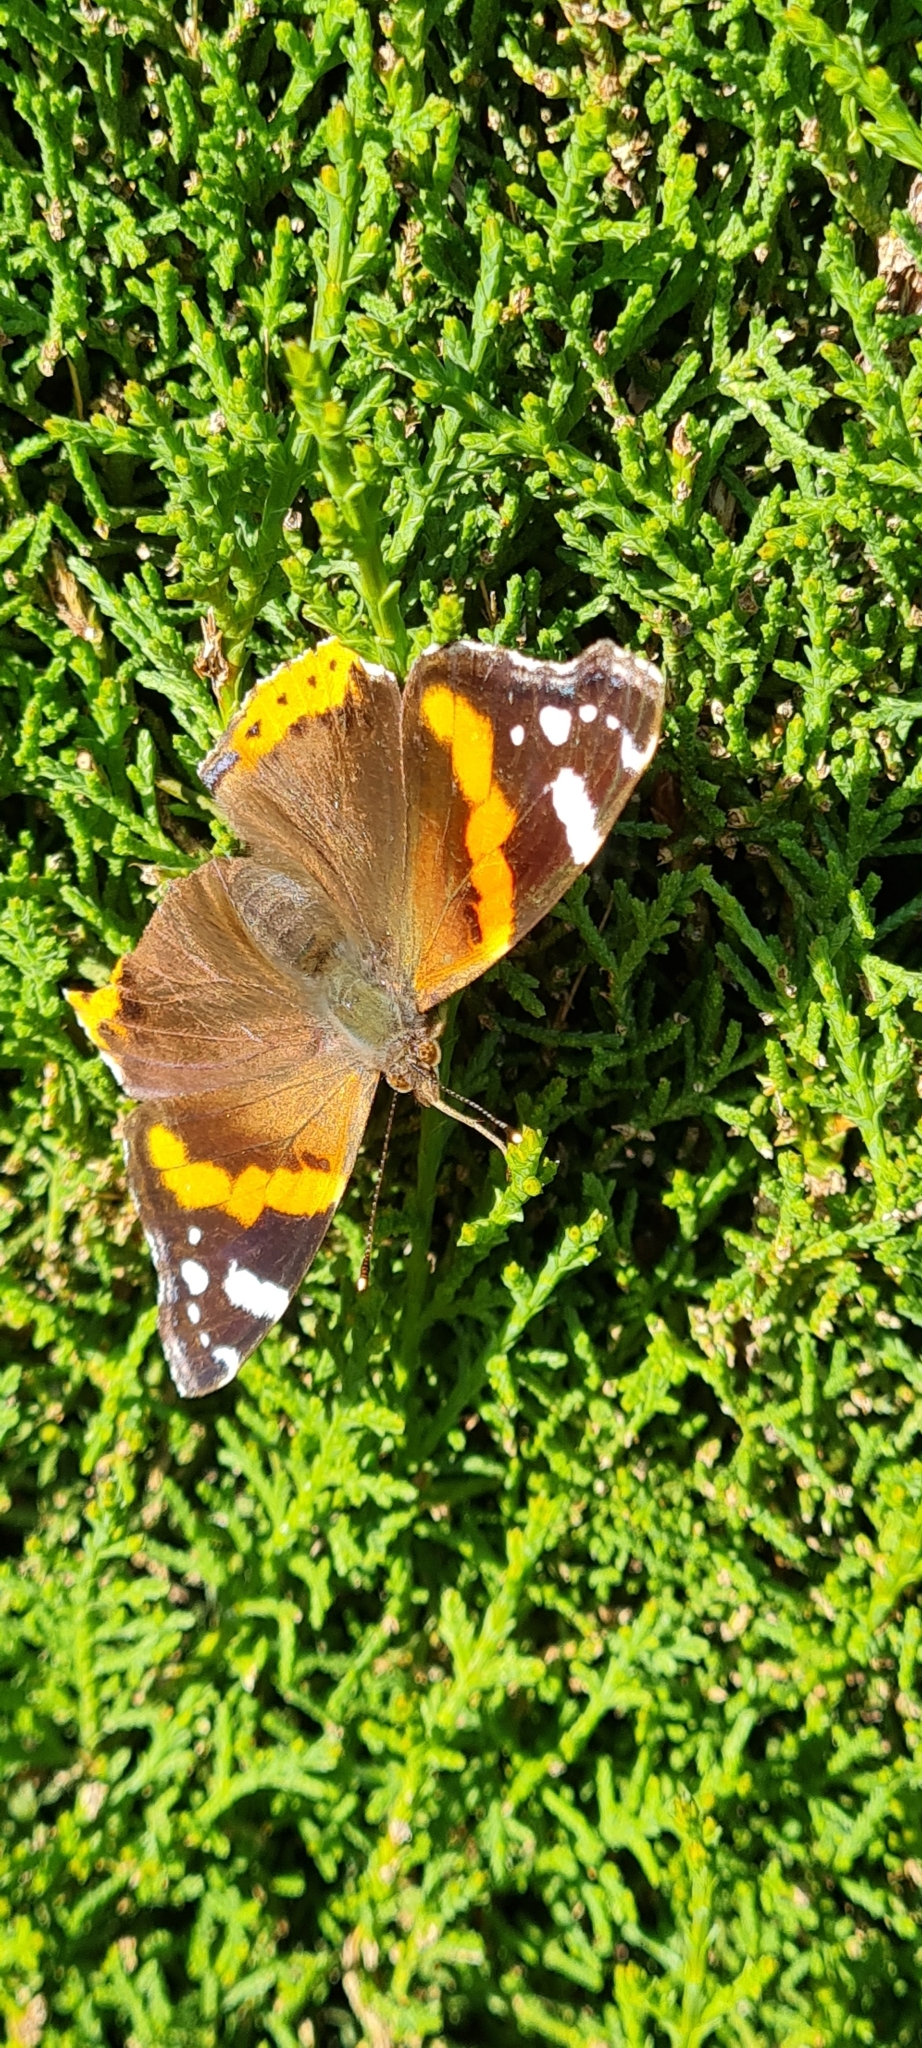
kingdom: Animalia
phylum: Arthropoda
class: Insecta
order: Lepidoptera
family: Nymphalidae
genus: Vanessa
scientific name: Vanessa atalanta
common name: Red admiral
